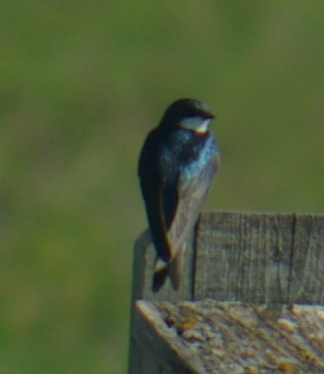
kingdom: Animalia
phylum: Chordata
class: Aves
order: Passeriformes
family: Hirundinidae
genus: Tachycineta
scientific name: Tachycineta bicolor
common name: Tree swallow
